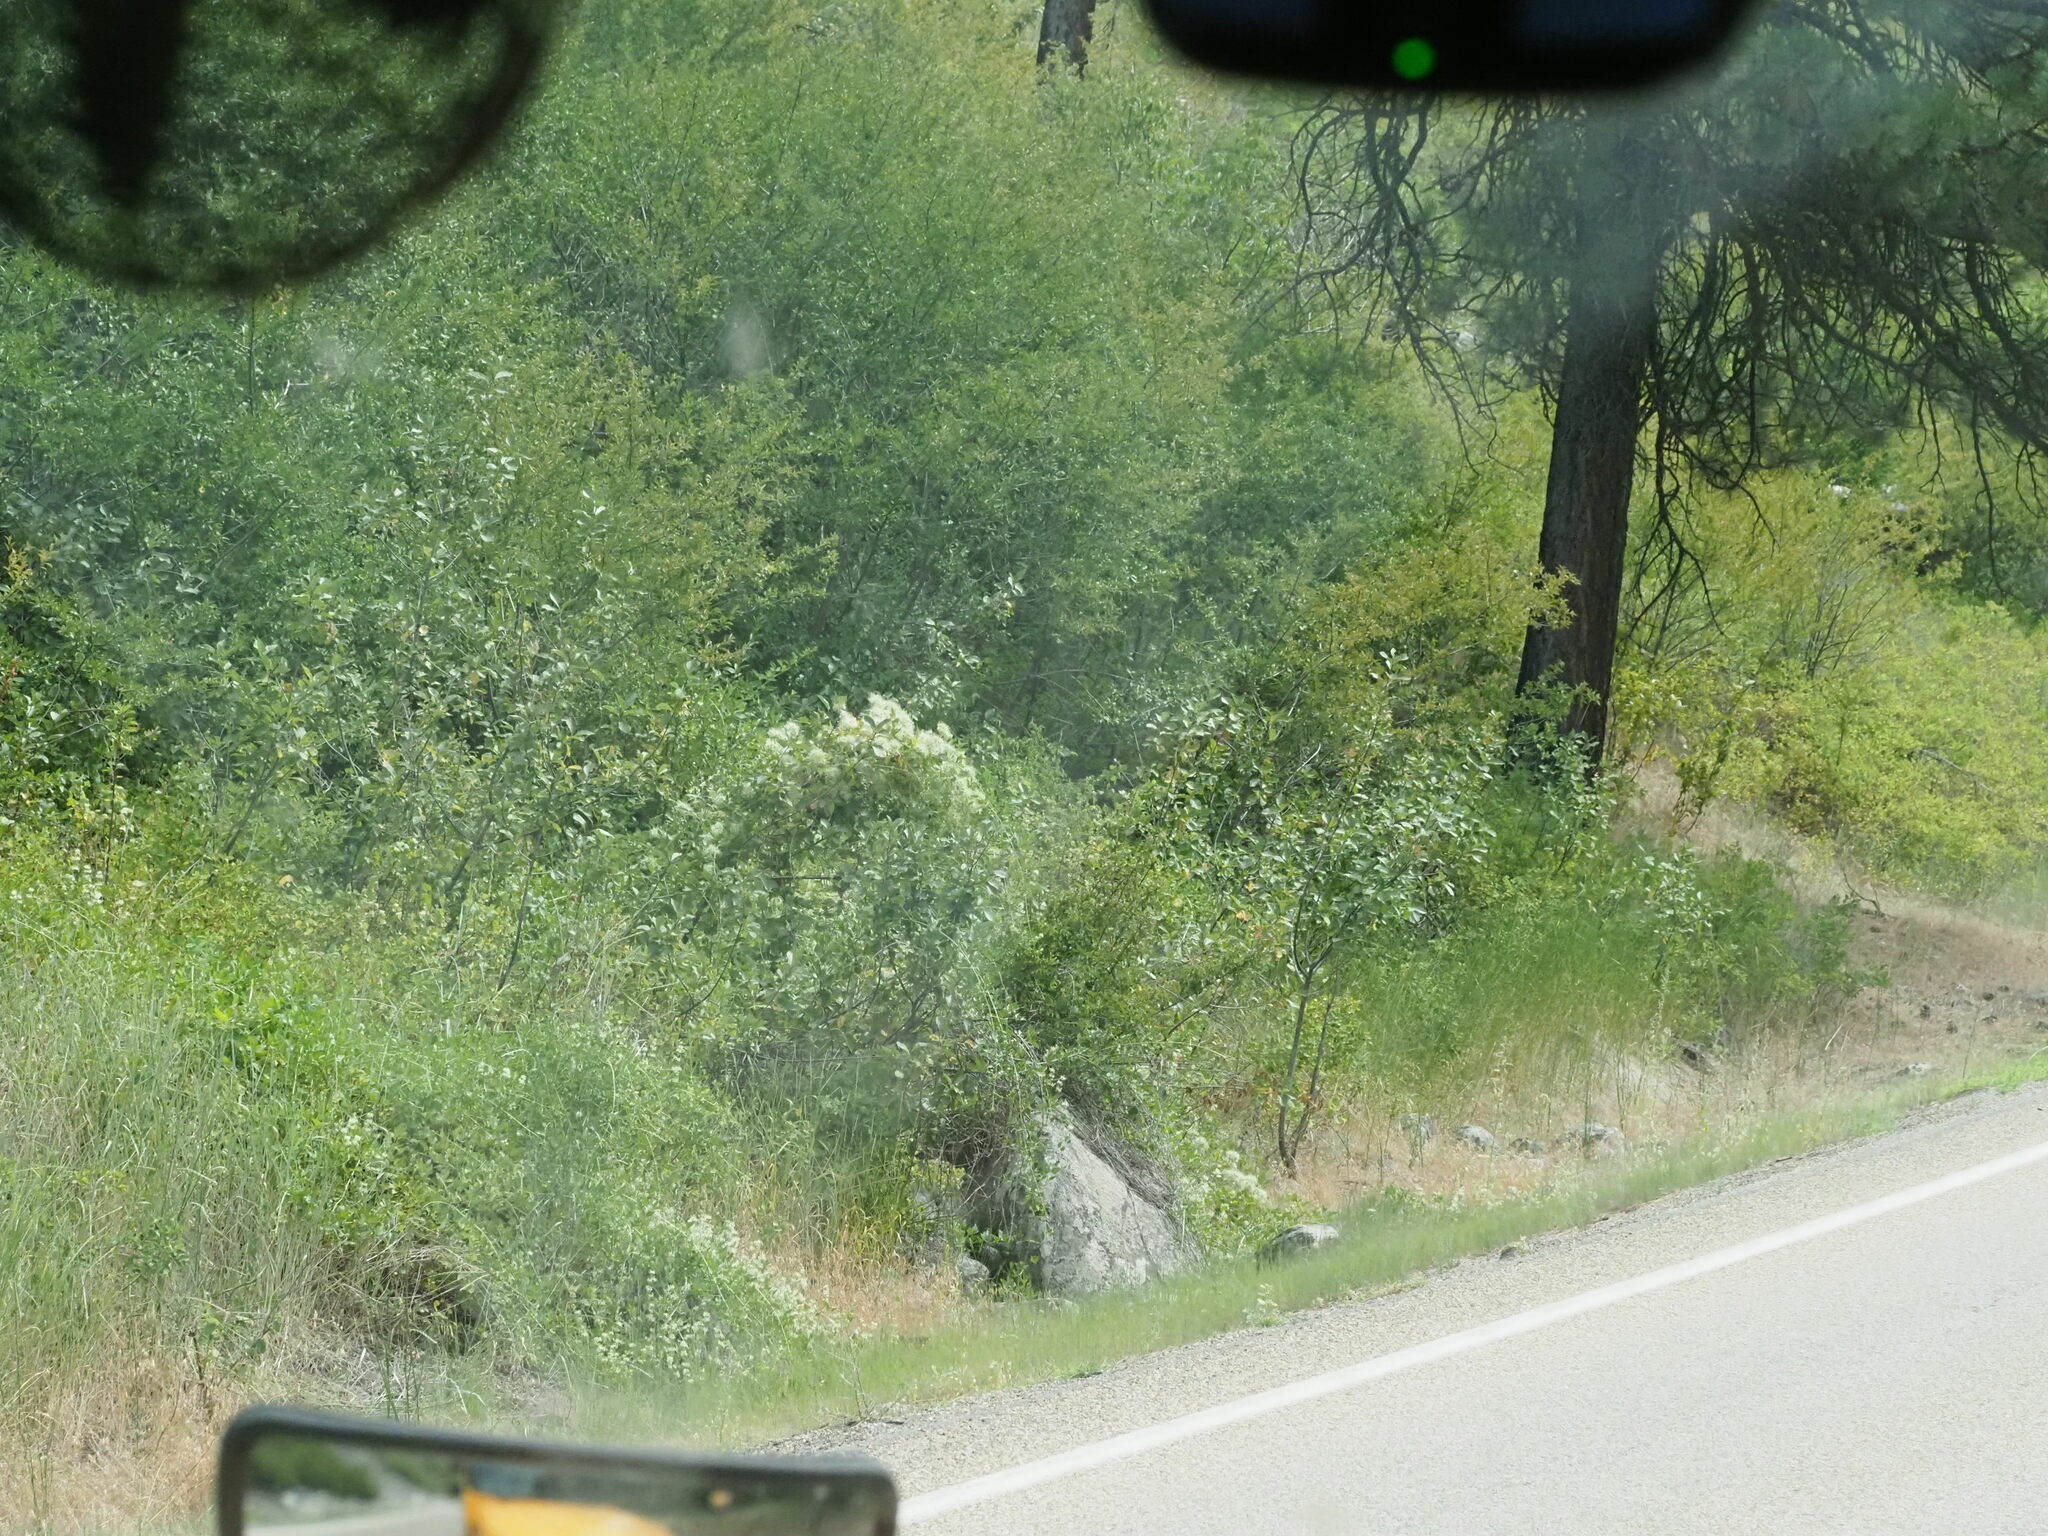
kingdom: Plantae
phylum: Tracheophyta
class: Magnoliopsida
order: Ranunculales
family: Ranunculaceae
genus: Clematis
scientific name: Clematis ligusticifolia
